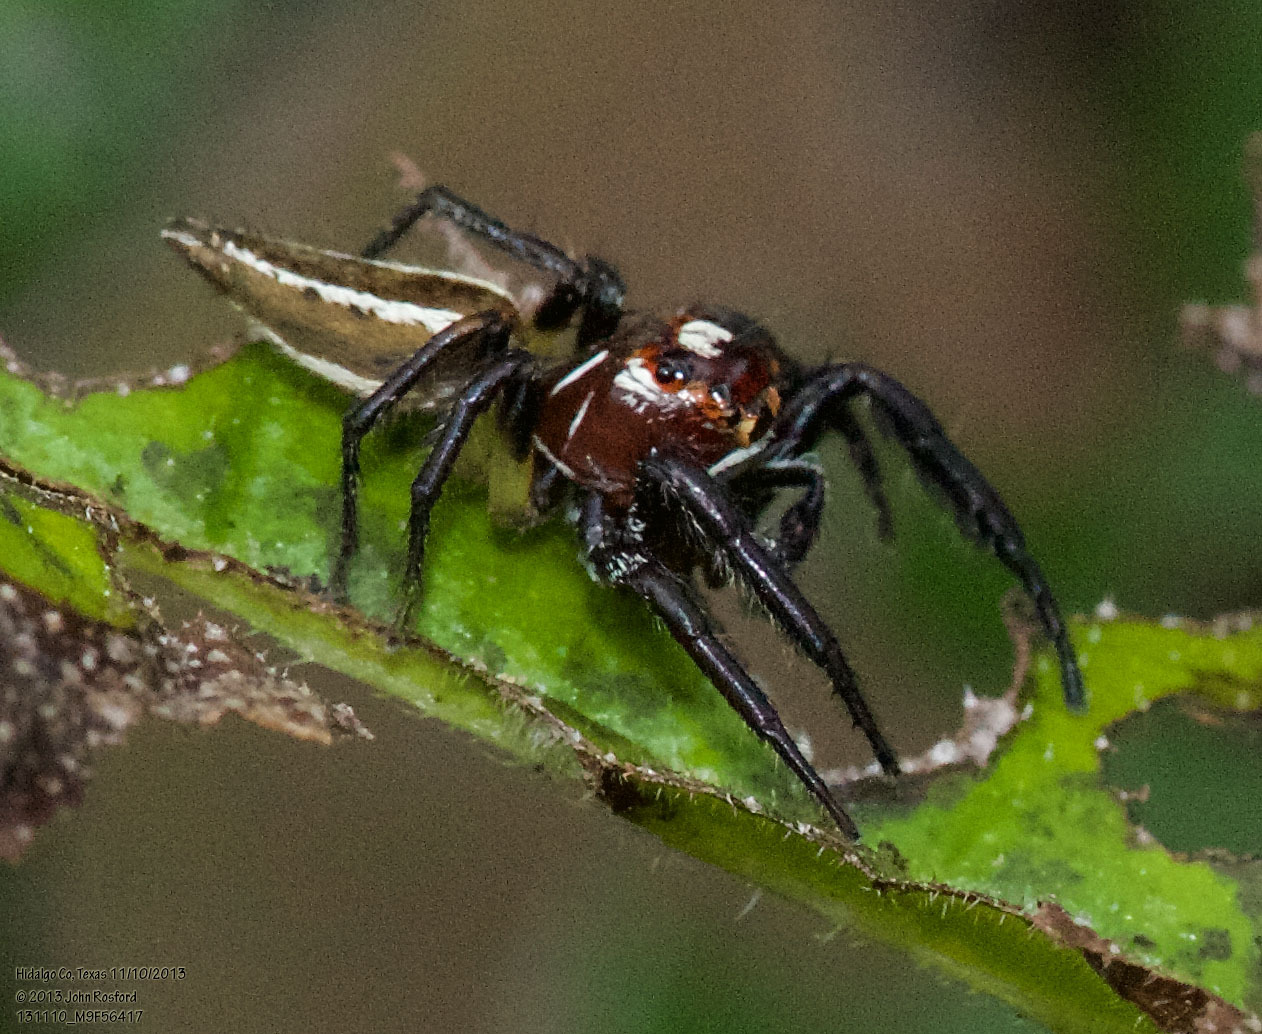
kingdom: Animalia
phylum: Arthropoda
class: Arachnida
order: Araneae
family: Salticidae
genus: Colonus
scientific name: Colonus sylvanus
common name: Jumping spiders
